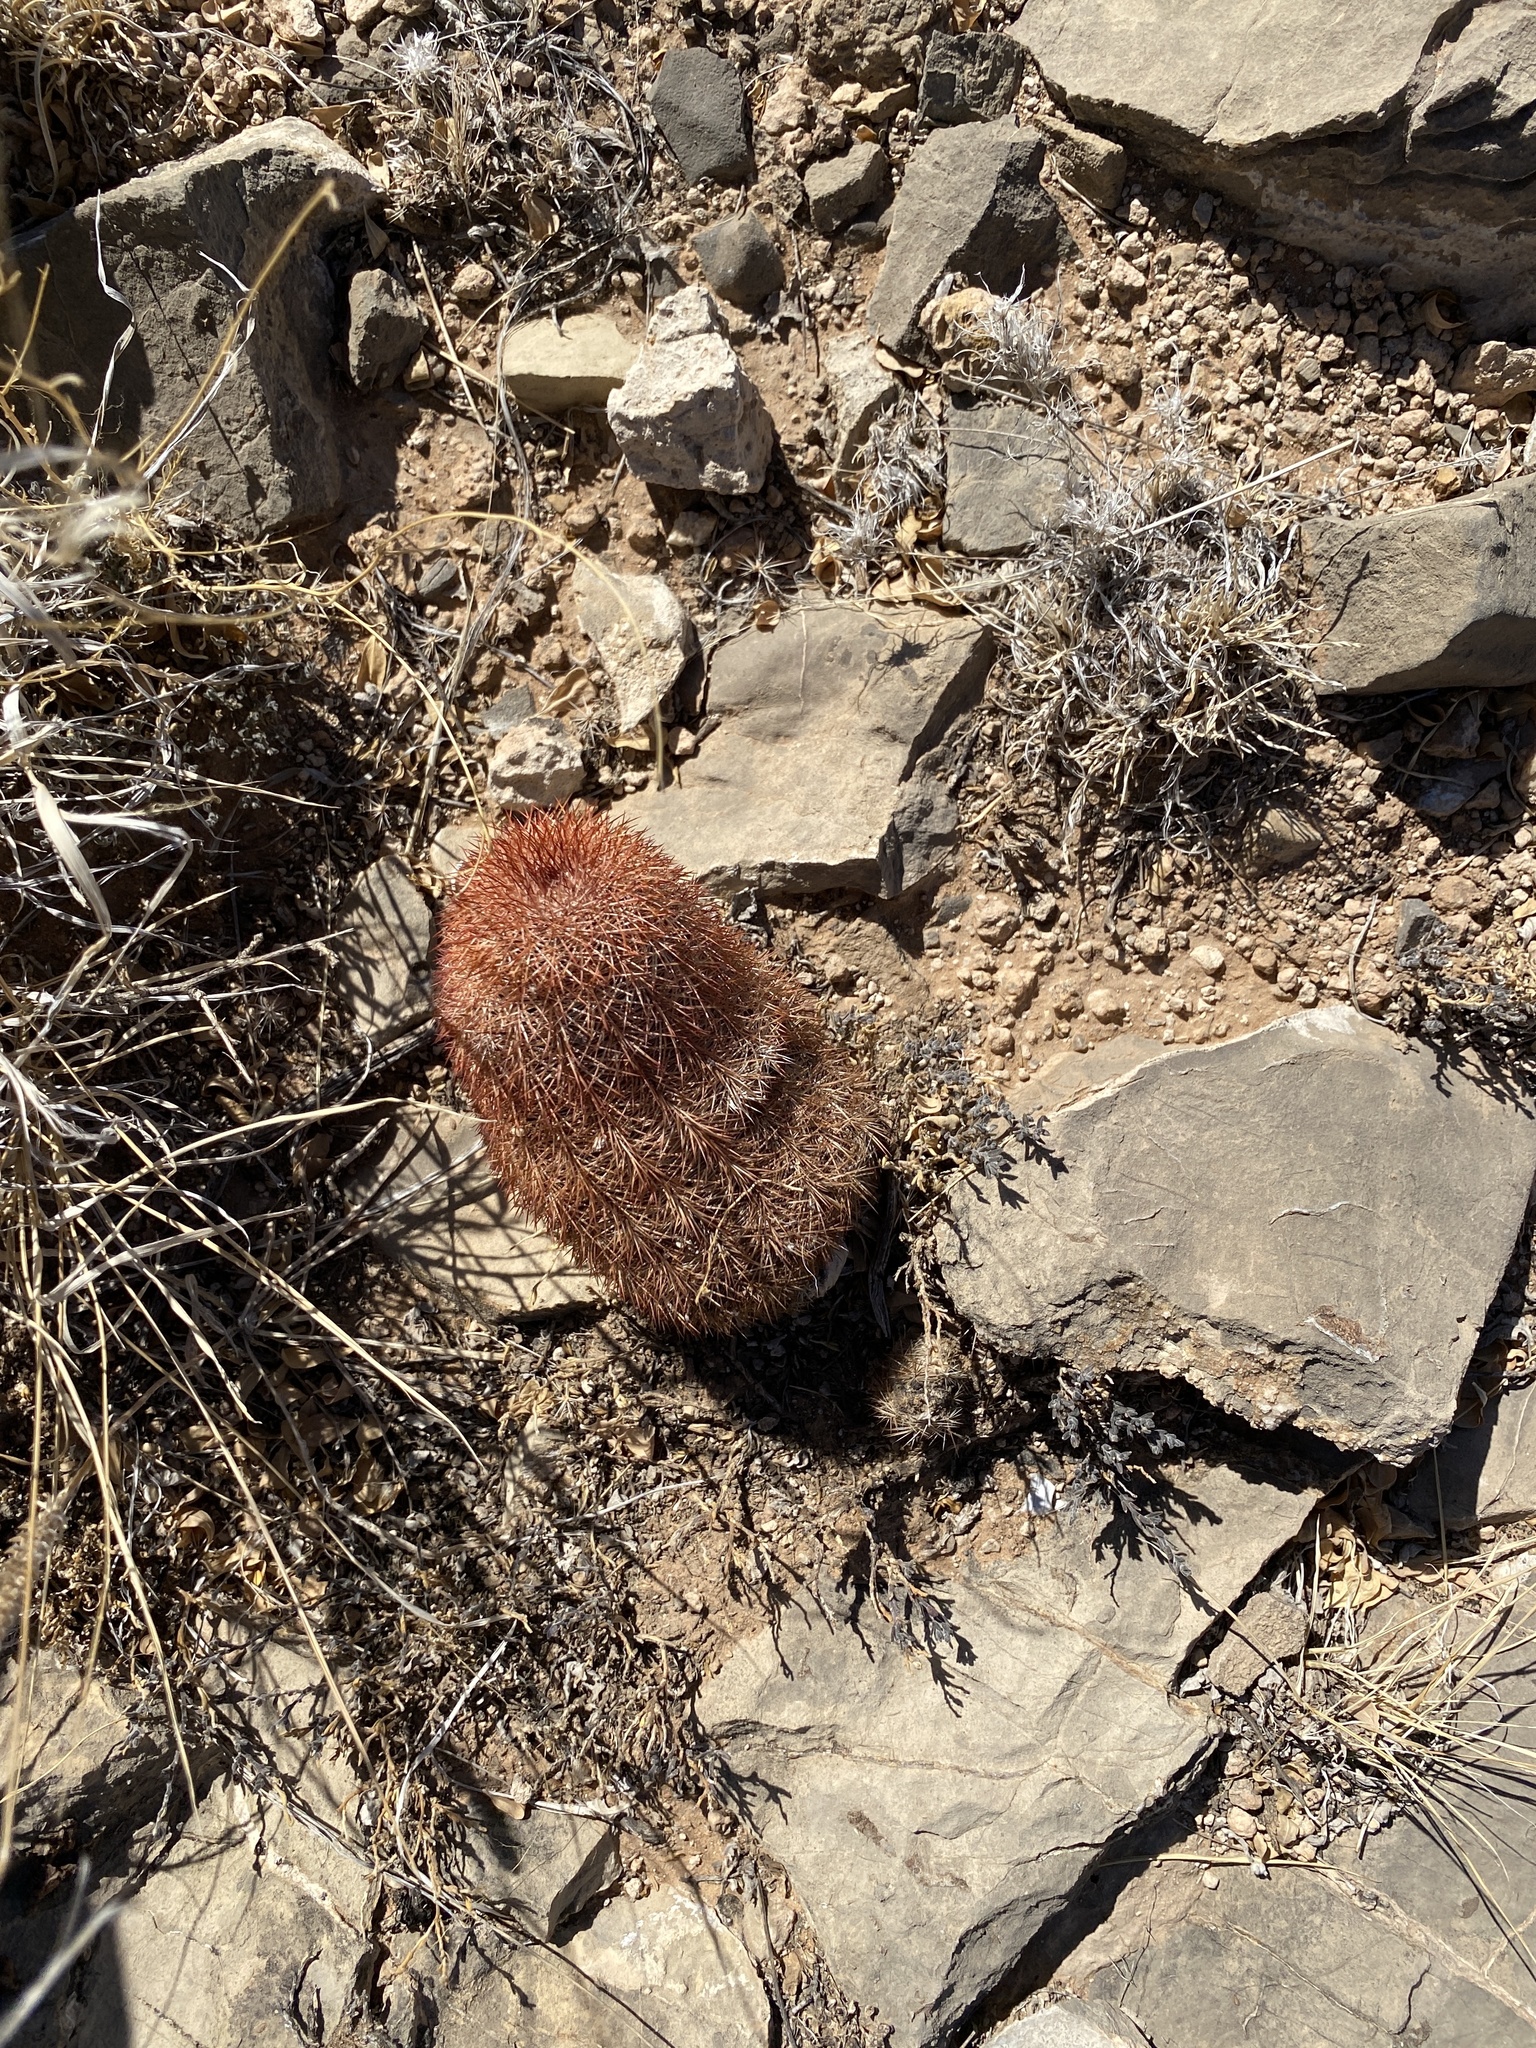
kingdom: Plantae
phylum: Tracheophyta
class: Magnoliopsida
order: Caryophyllales
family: Cactaceae
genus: Echinocereus
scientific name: Echinocereus dasyacanthus
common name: Spiny hedgehog cactus
